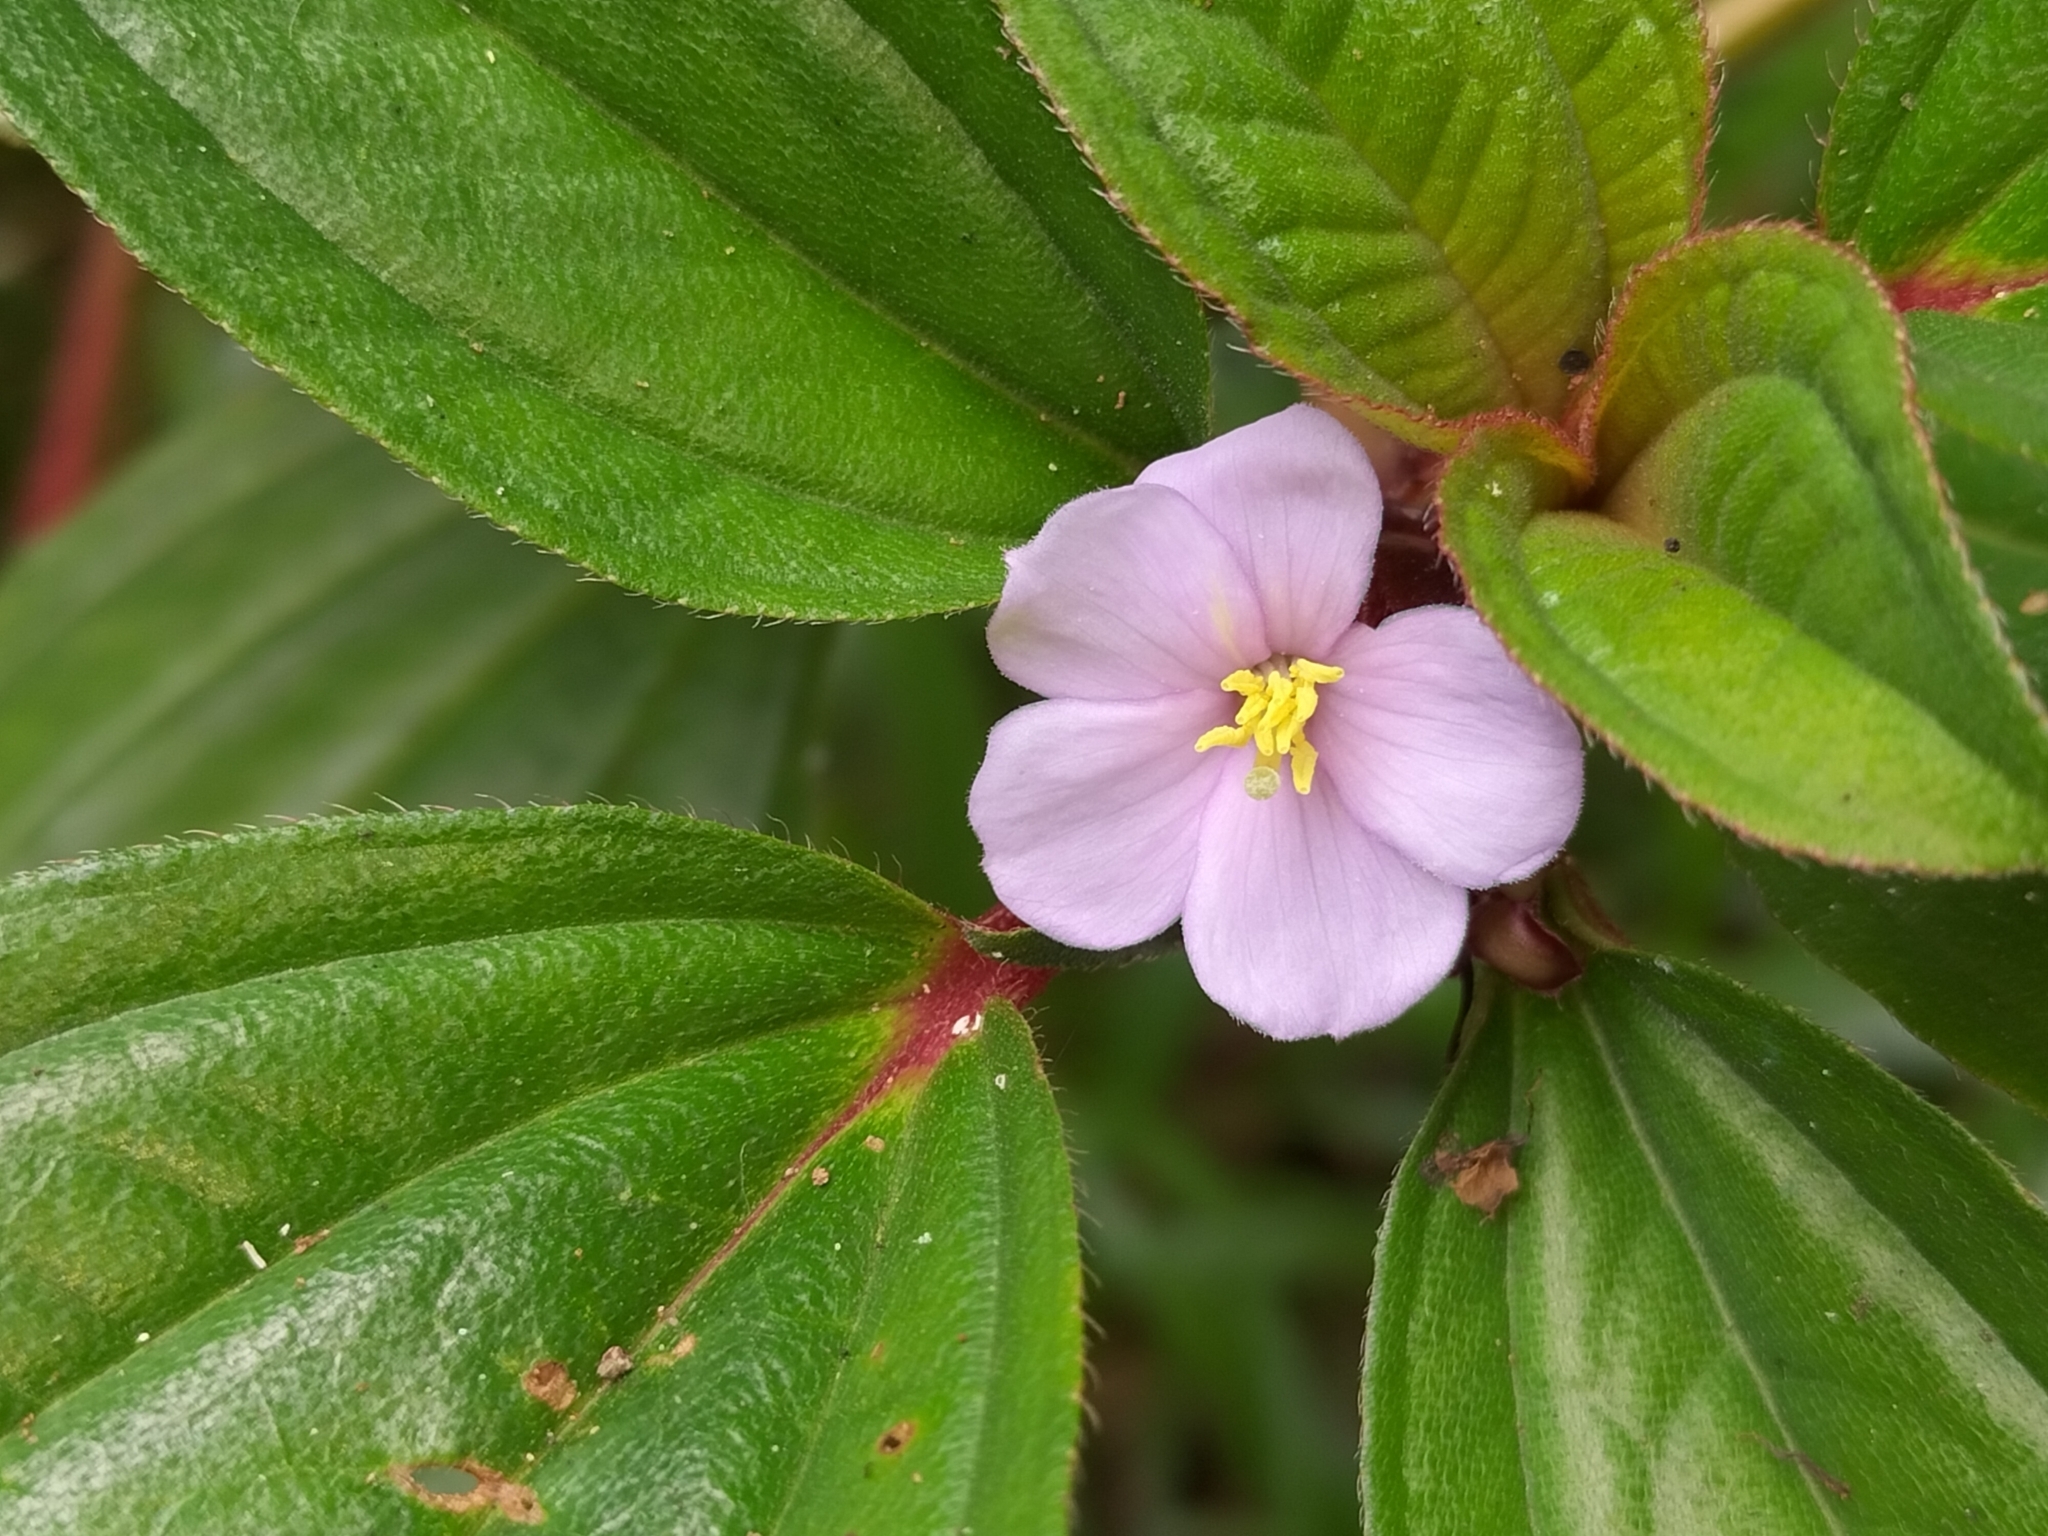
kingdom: Plantae
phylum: Tracheophyta
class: Magnoliopsida
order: Myrtales
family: Melastomataceae
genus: Tristemma
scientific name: Tristemma mauritianum
